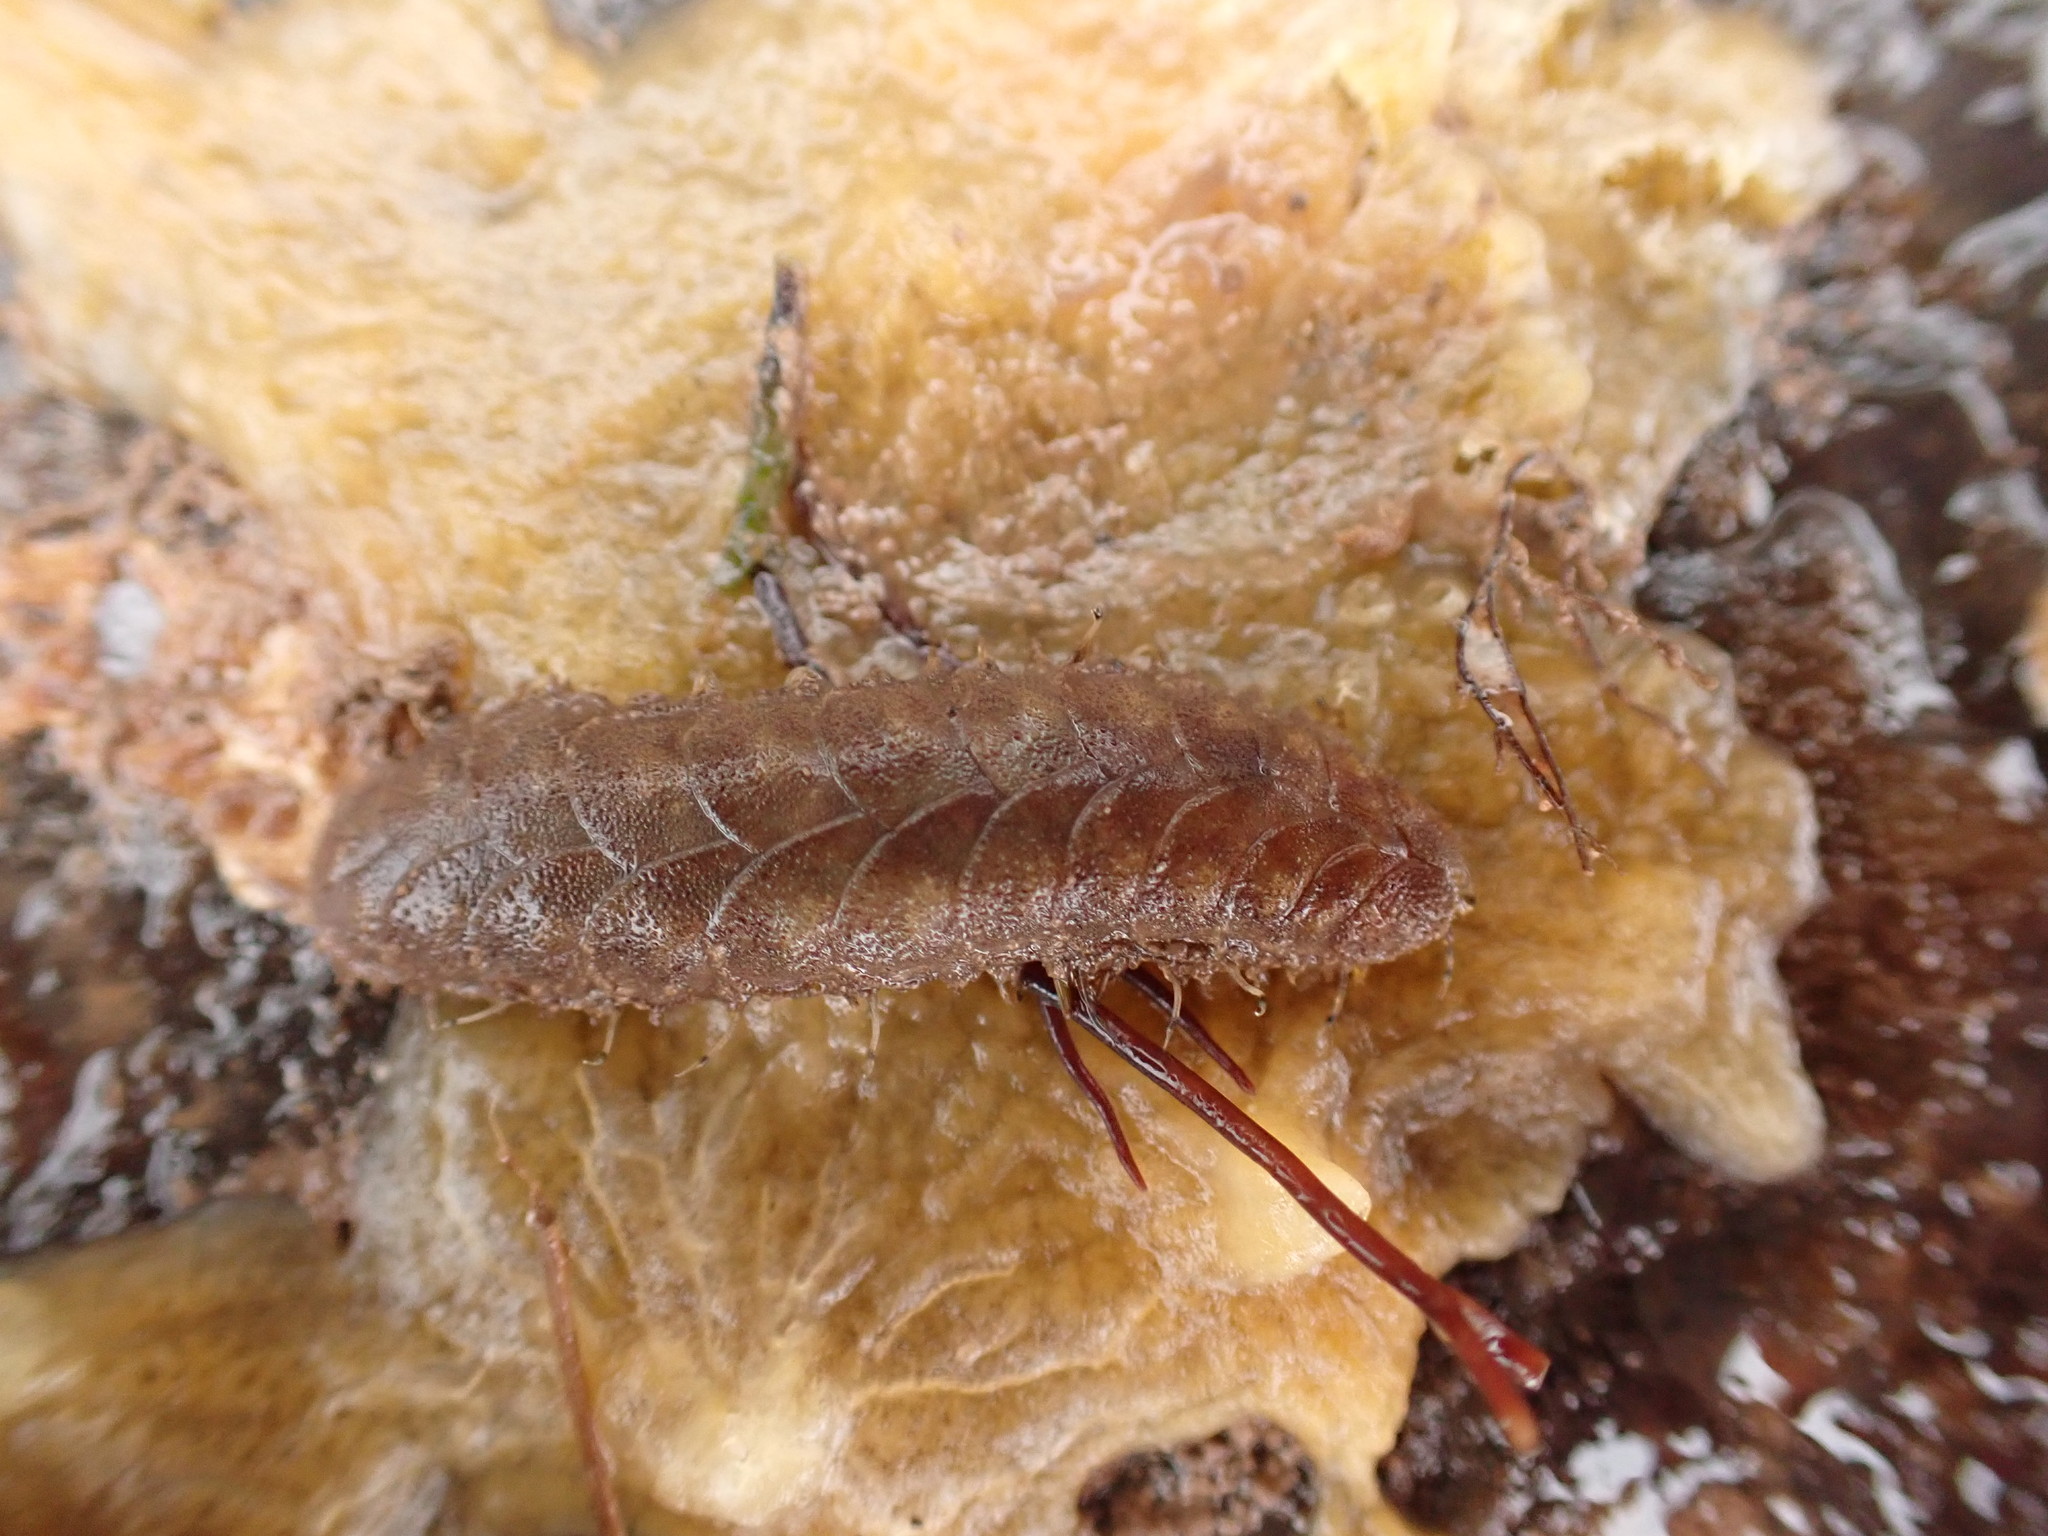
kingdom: Animalia
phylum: Annelida
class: Polychaeta
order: Phyllodocida
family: Polynoidae
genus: Lepidonotus
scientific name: Lepidonotus squamatus
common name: Twelve-scaled worm
